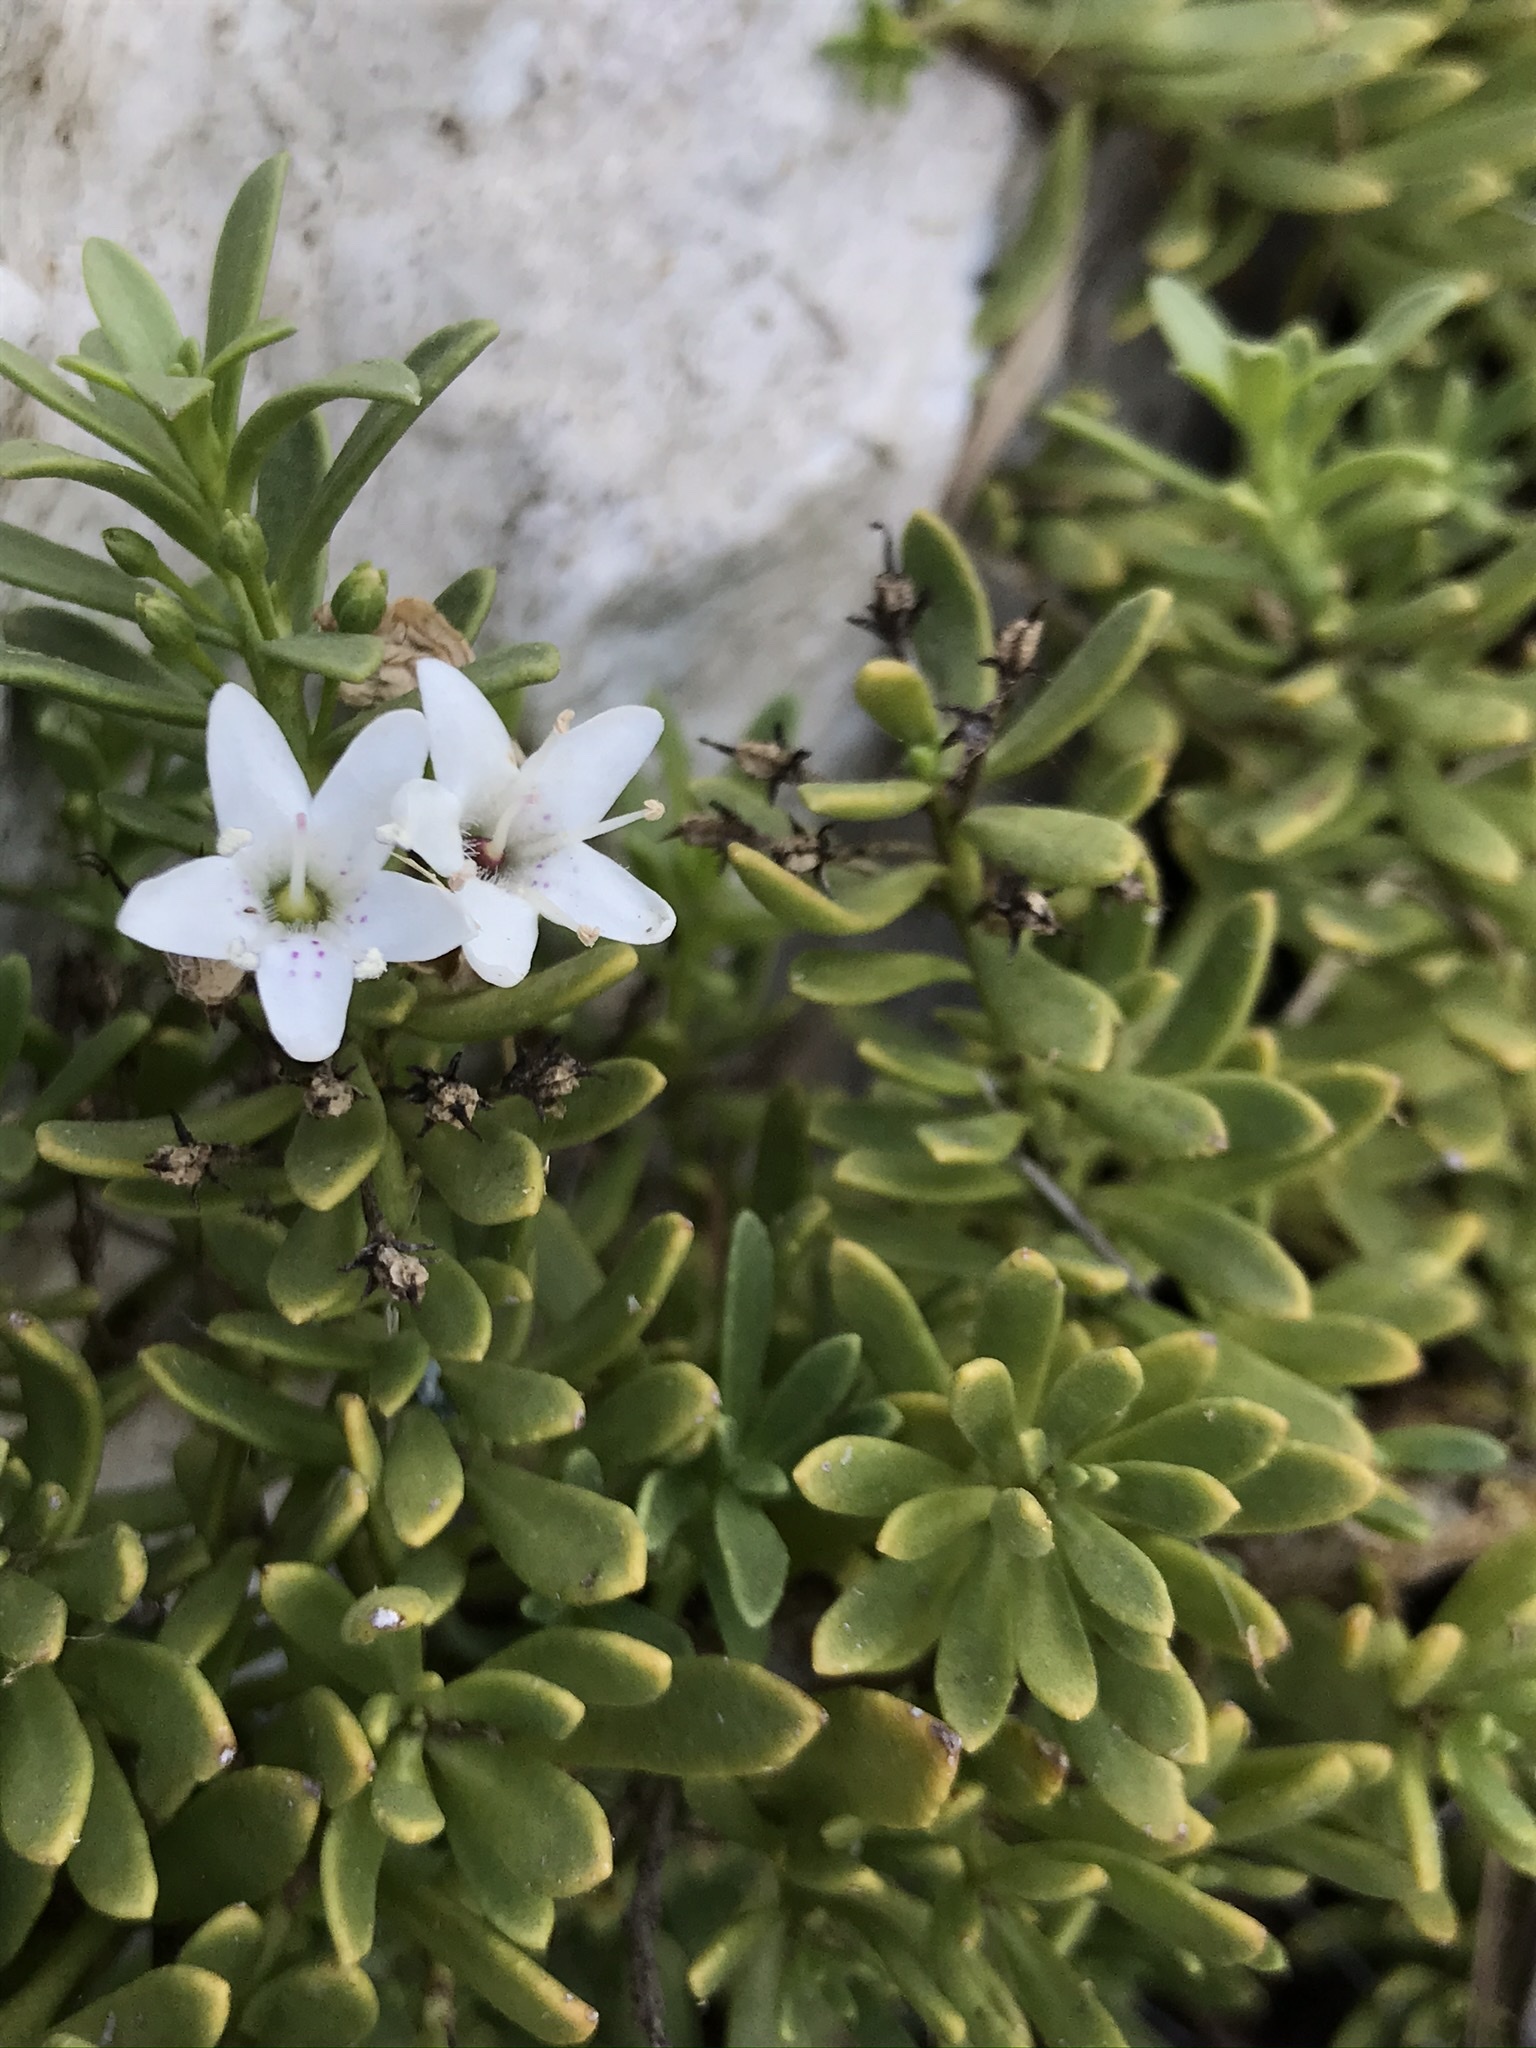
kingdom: Plantae
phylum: Tracheophyta
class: Magnoliopsida
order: Lamiales
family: Scrophulariaceae
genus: Myoporum
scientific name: Myoporum parvifolium
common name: Dwarf native-myrtle
